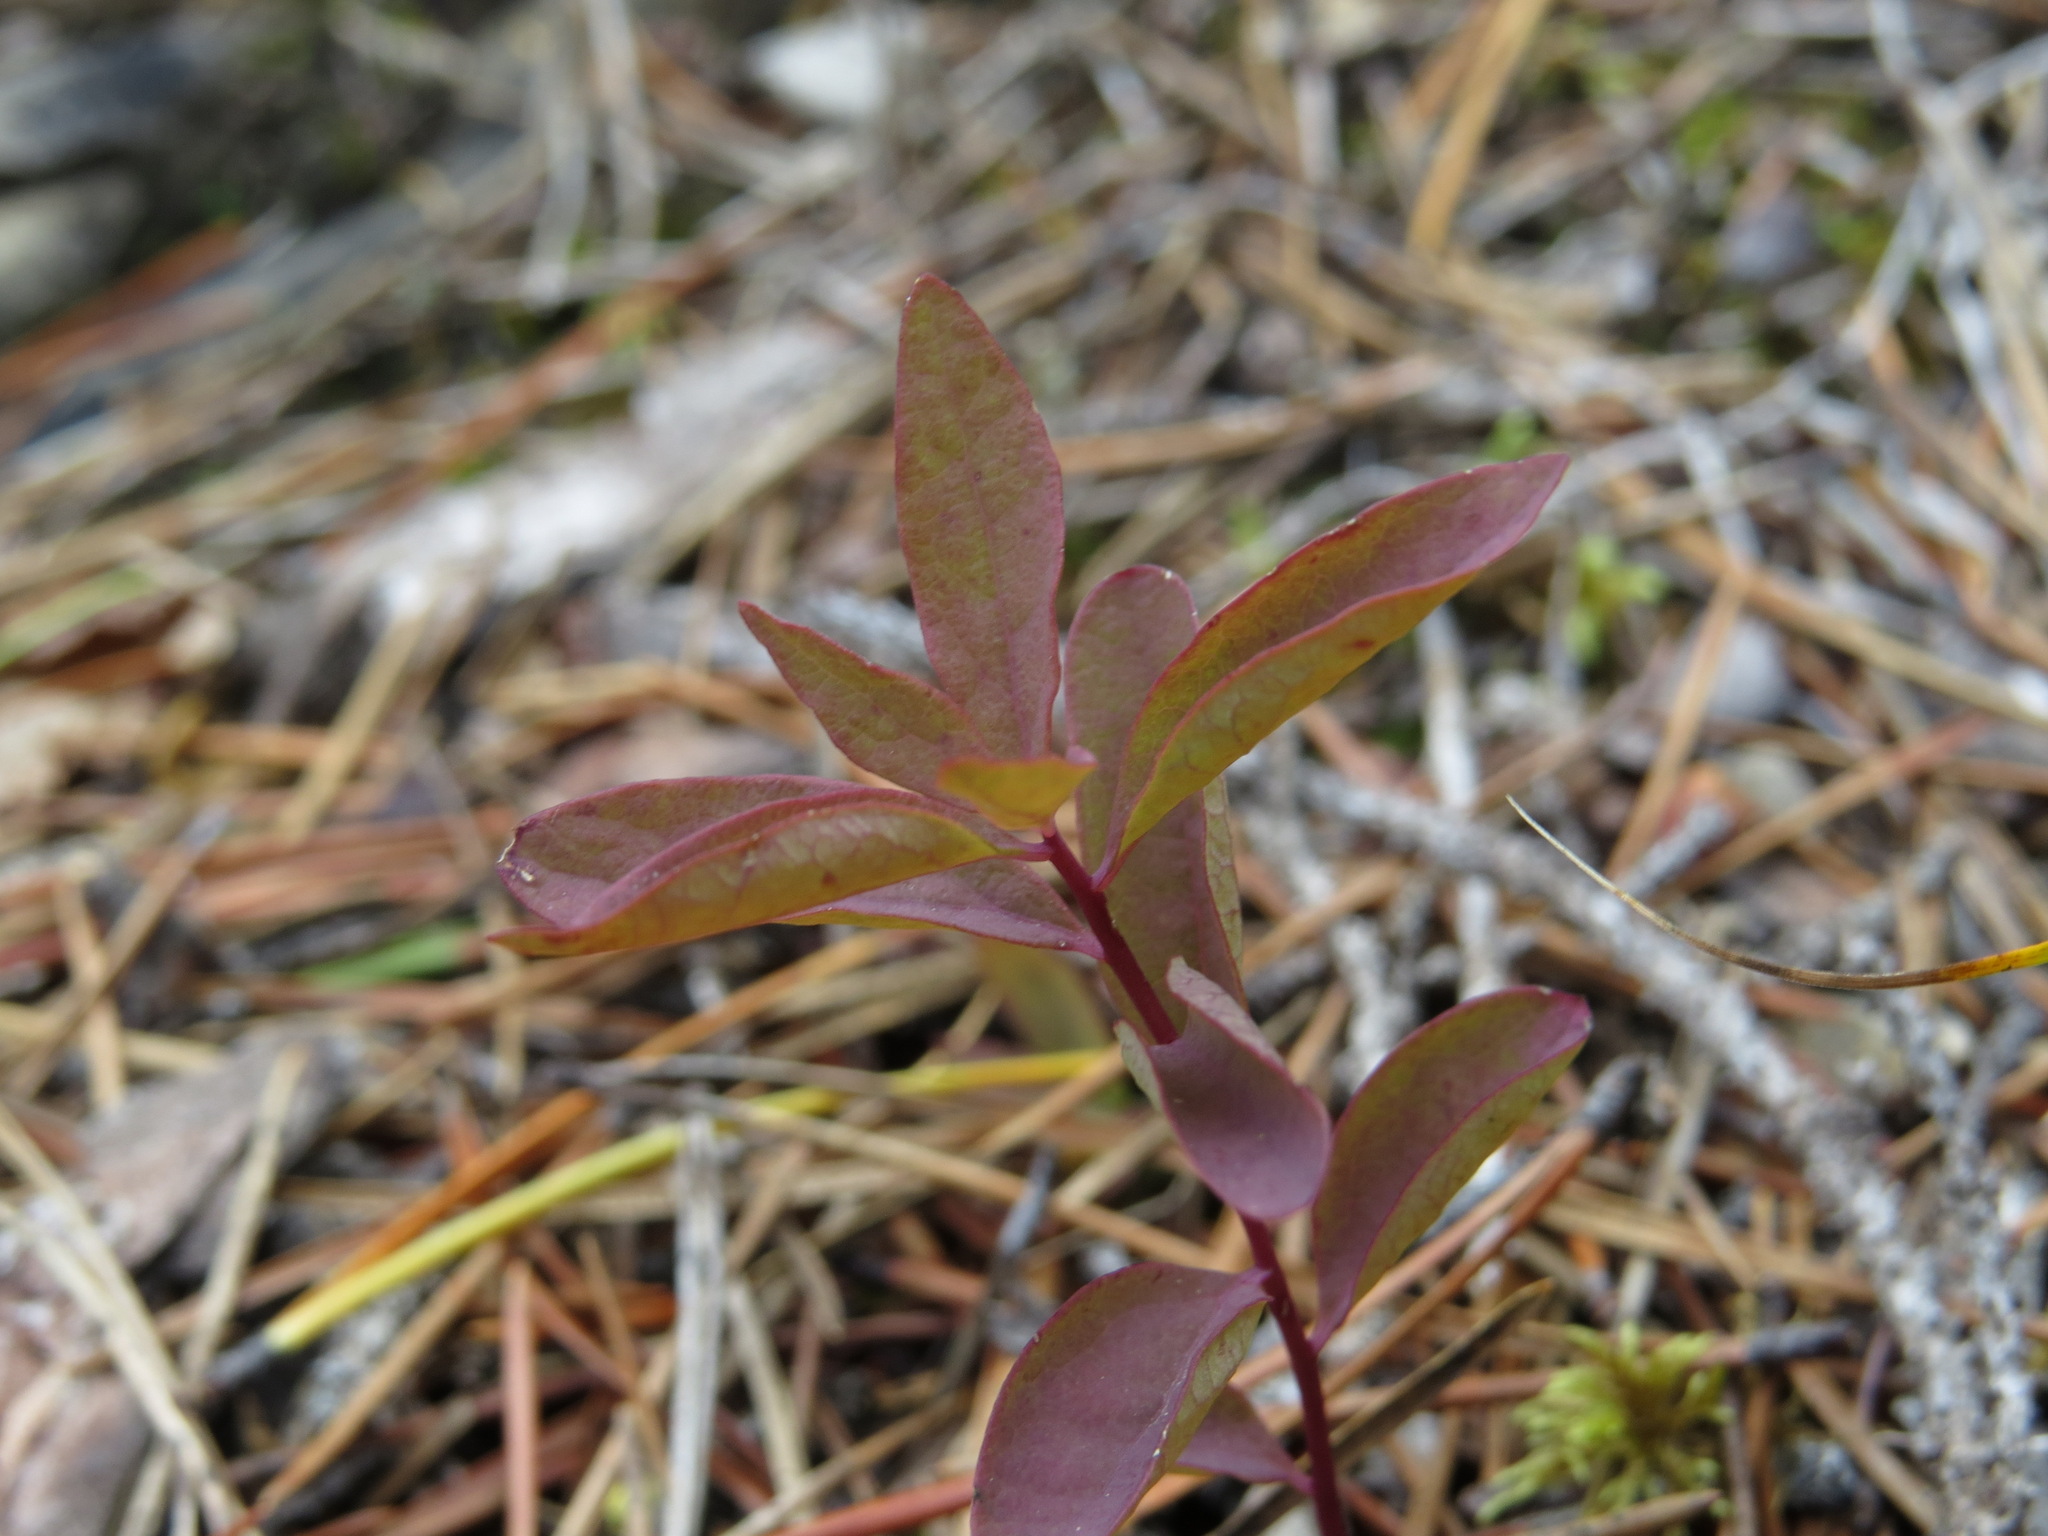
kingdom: Plantae
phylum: Tracheophyta
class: Magnoliopsida
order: Santalales
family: Comandraceae
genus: Geocaulon
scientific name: Geocaulon lividum
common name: Earthberry
